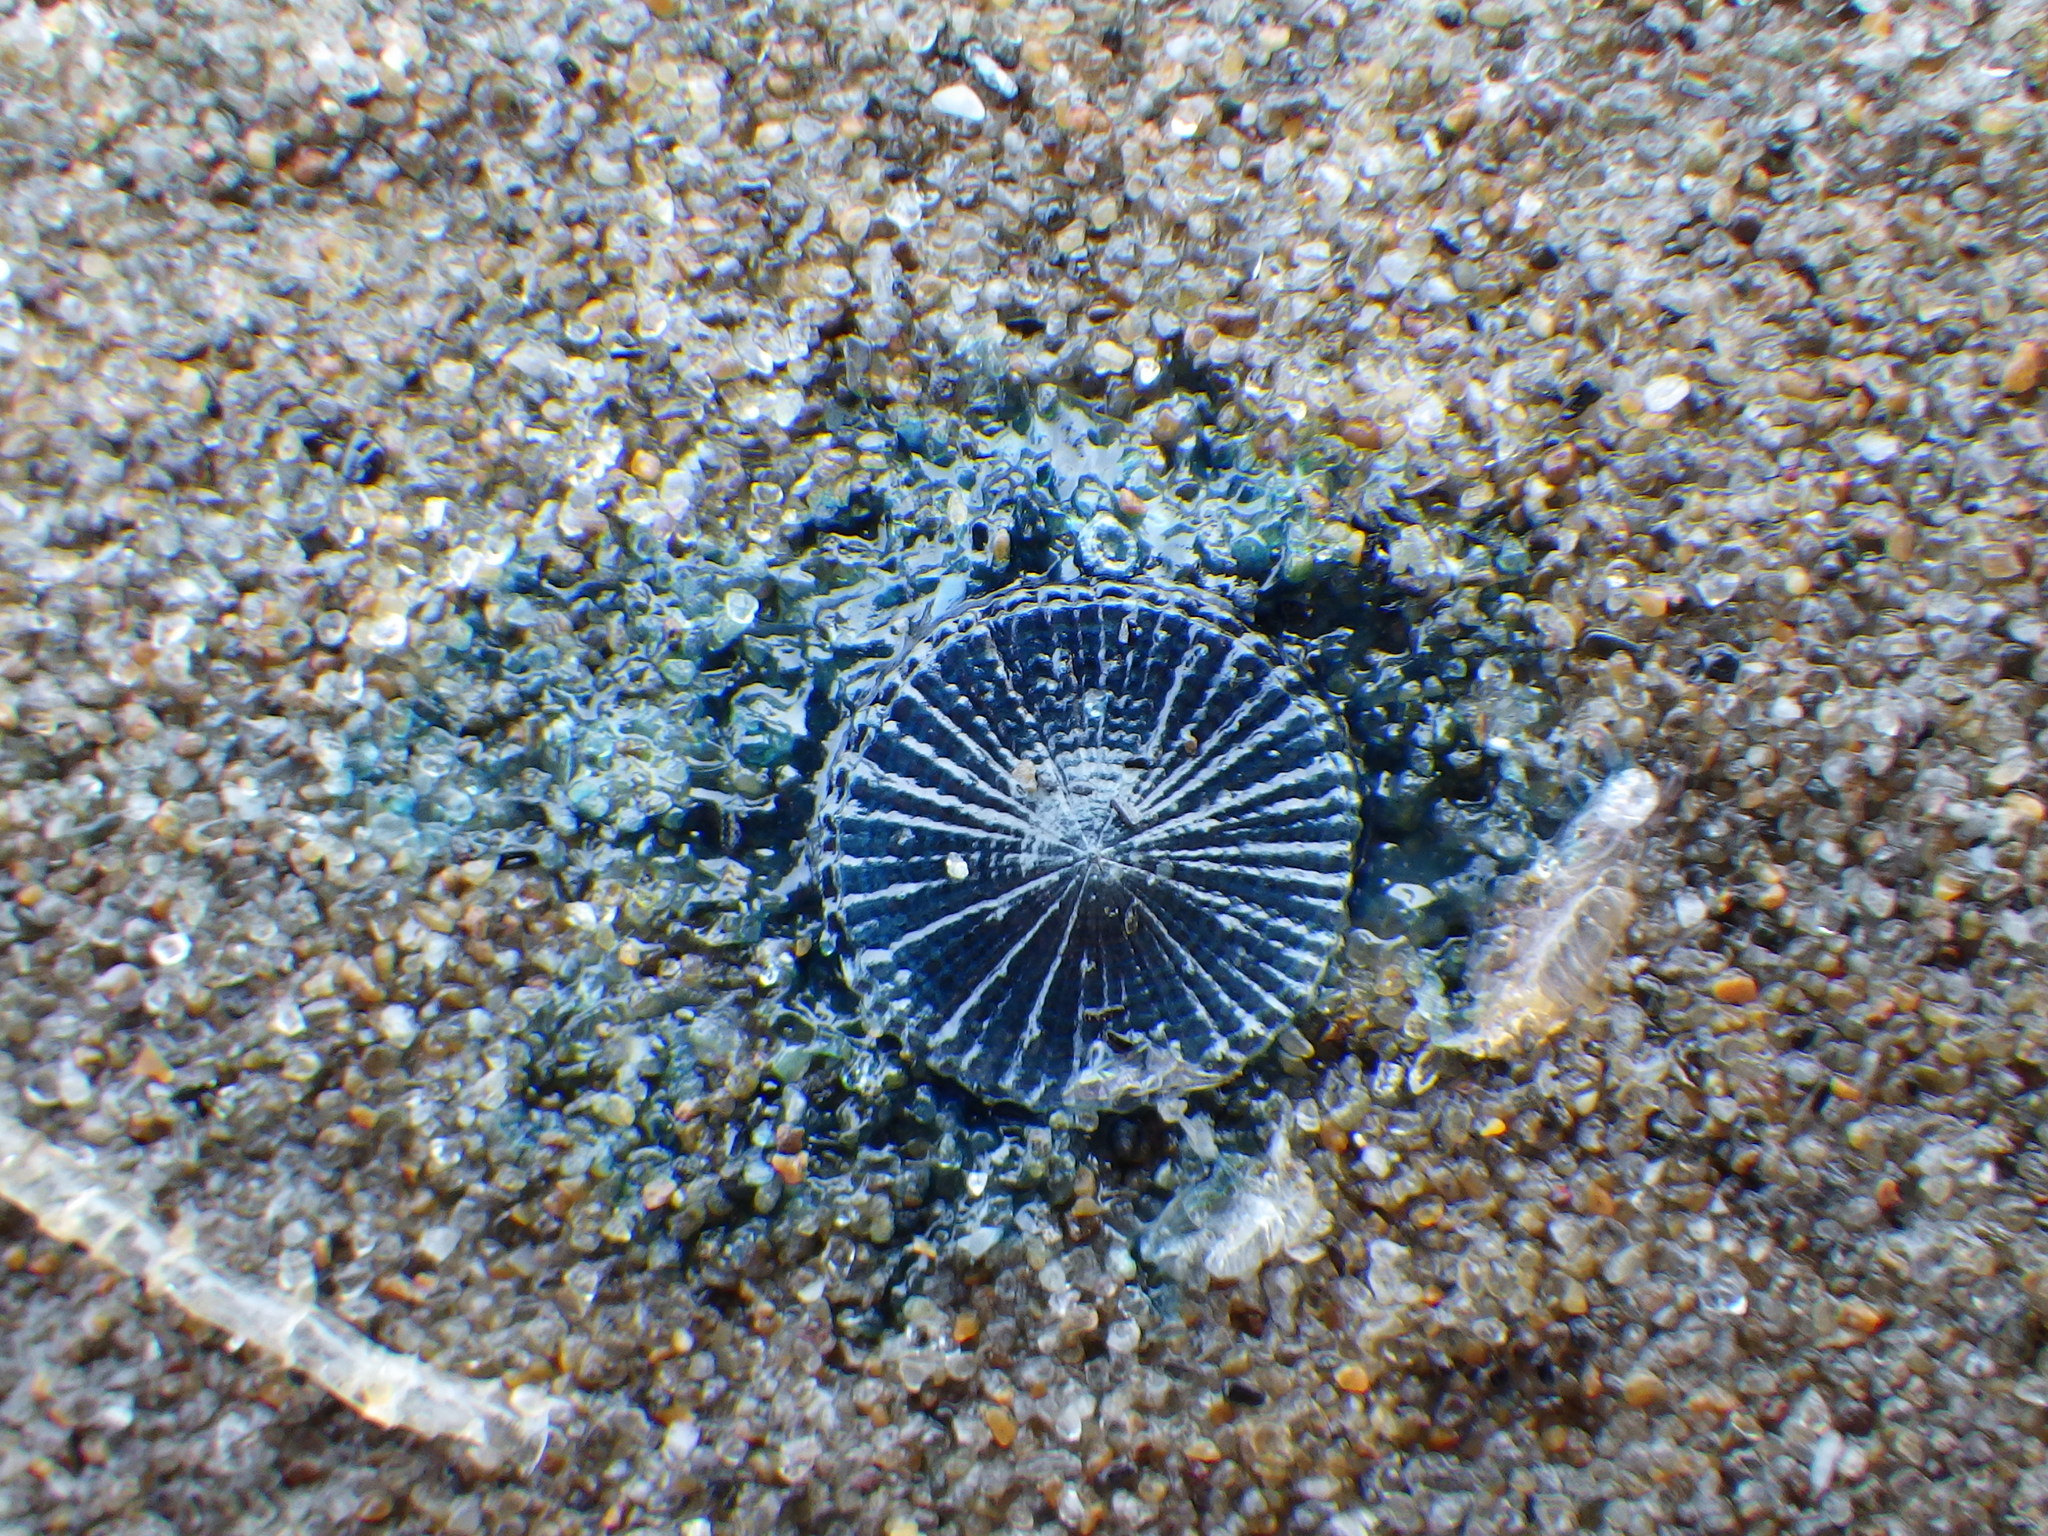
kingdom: Animalia
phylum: Cnidaria
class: Hydrozoa
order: Anthoathecata
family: Porpitidae
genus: Porpita
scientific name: Porpita porpita
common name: Blue button
